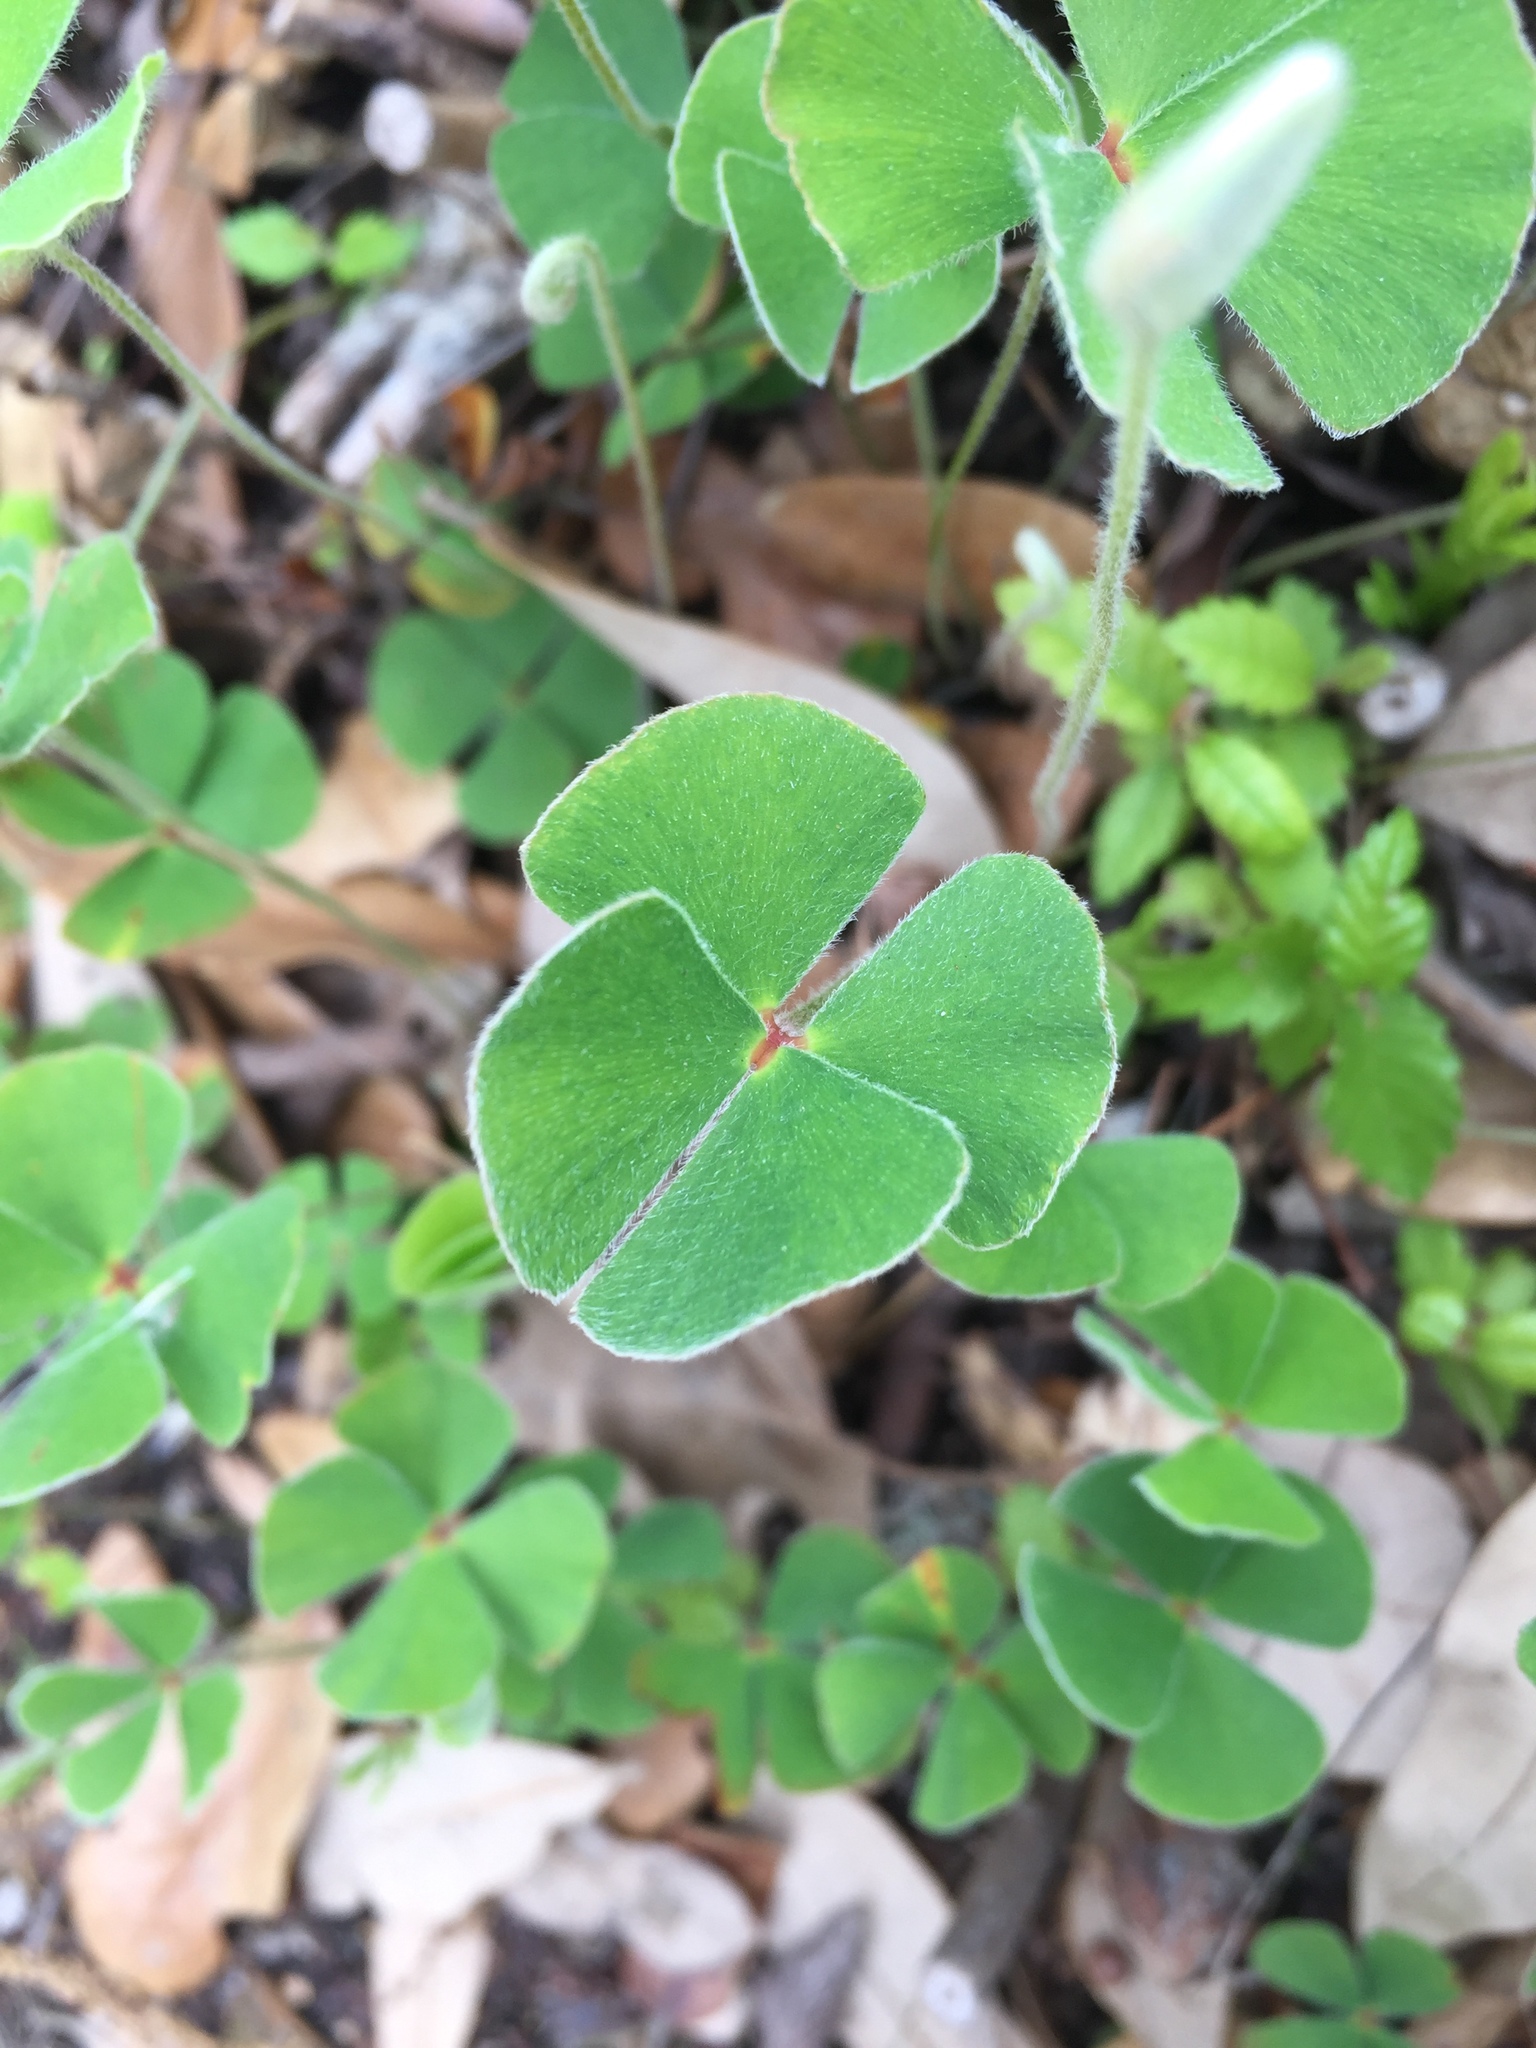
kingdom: Plantae
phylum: Tracheophyta
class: Polypodiopsida
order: Salviniales
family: Marsileaceae
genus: Marsilea
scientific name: Marsilea macropoda
